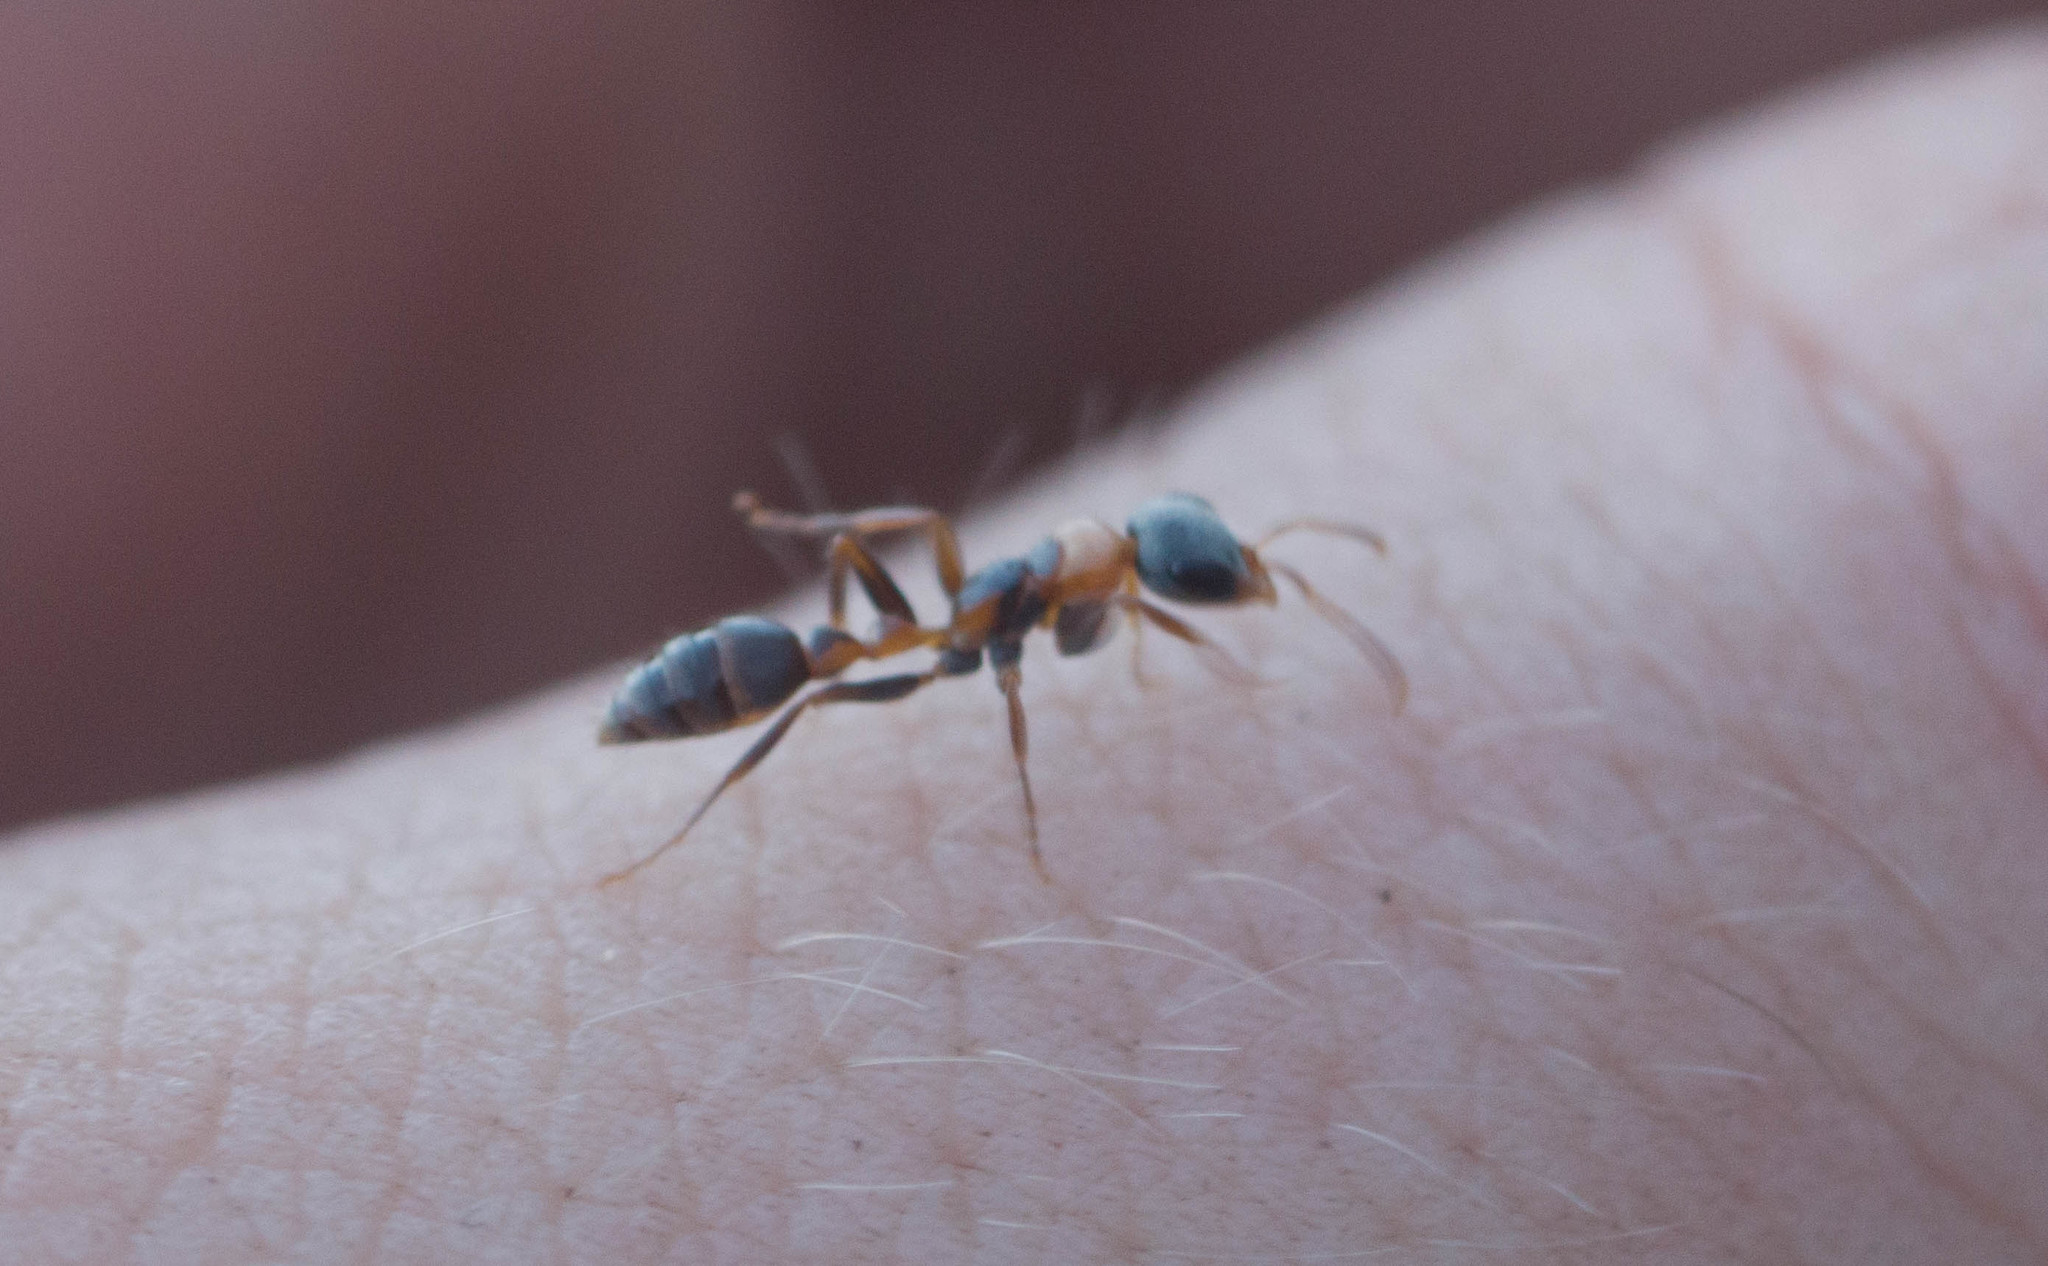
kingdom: Animalia
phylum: Arthropoda
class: Insecta
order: Hymenoptera
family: Formicidae
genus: Pseudomyrmex
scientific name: Pseudomyrmex gracilis
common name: Graceful twig ant
